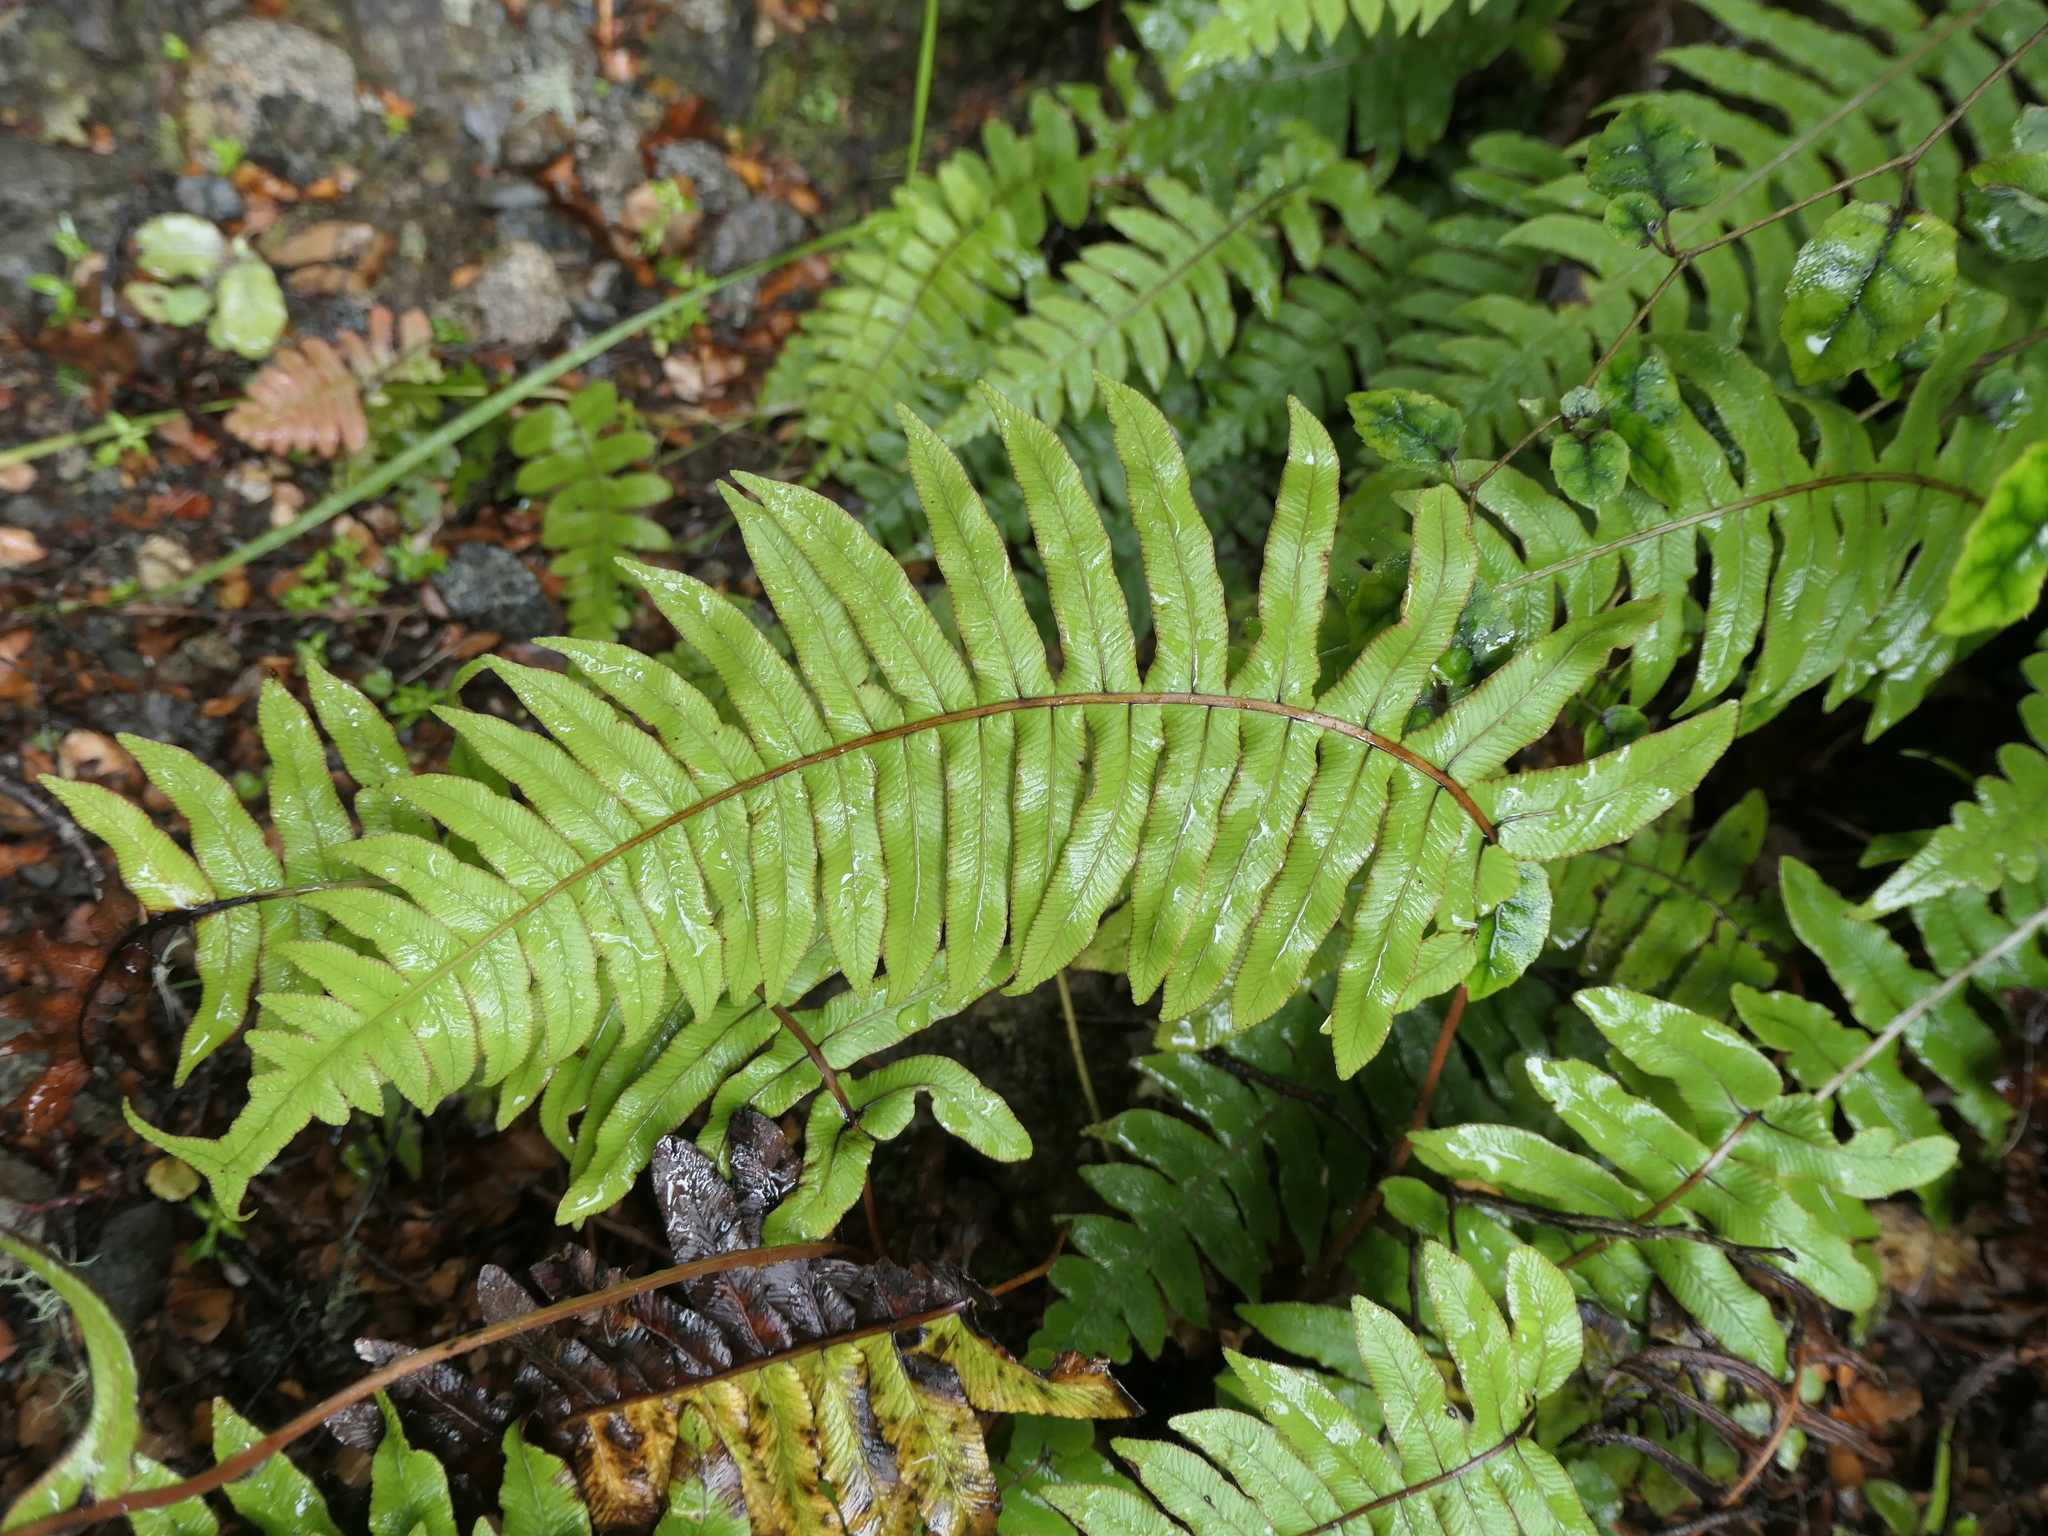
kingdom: Plantae
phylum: Tracheophyta
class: Polypodiopsida
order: Polypodiales
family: Blechnaceae
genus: Cranfillia
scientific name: Cranfillia deltoides
